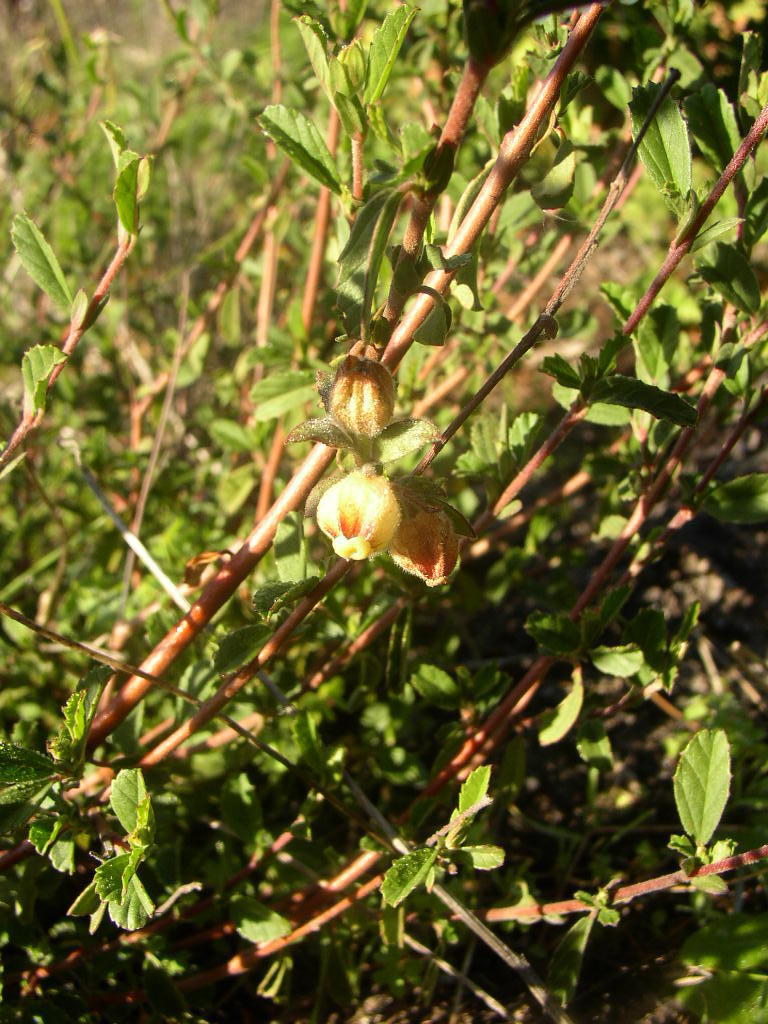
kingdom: Plantae
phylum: Tracheophyta
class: Magnoliopsida
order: Malvales
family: Malvaceae
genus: Hermannia
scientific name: Hermannia hyssopifolia
